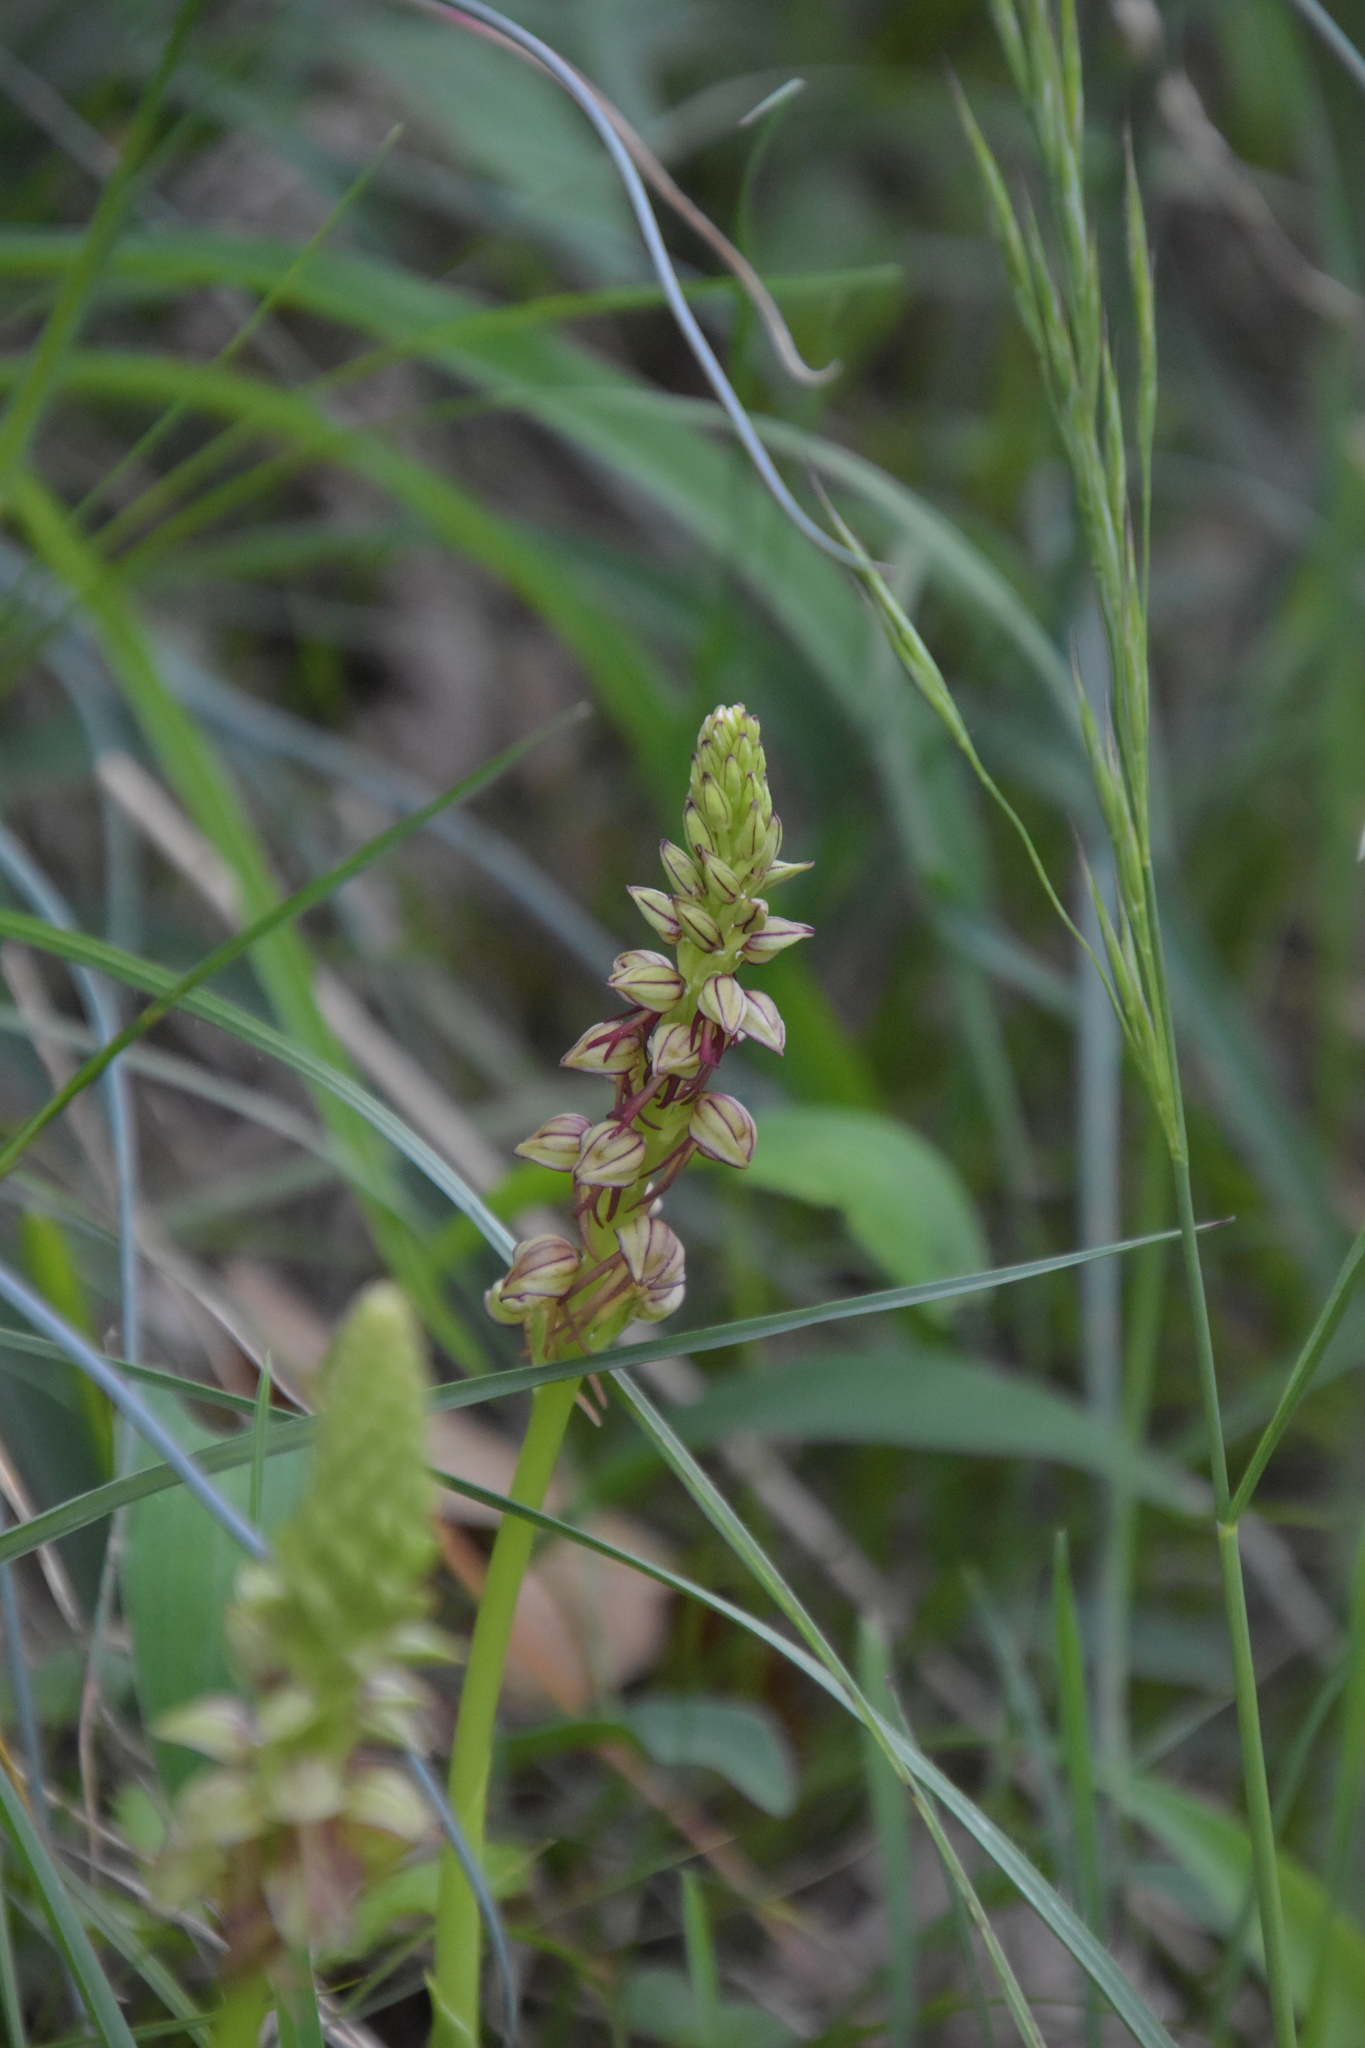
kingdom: Plantae
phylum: Tracheophyta
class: Liliopsida
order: Asparagales
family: Orchidaceae
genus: Orchis
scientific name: Orchis anthropophora
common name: Man orchid
